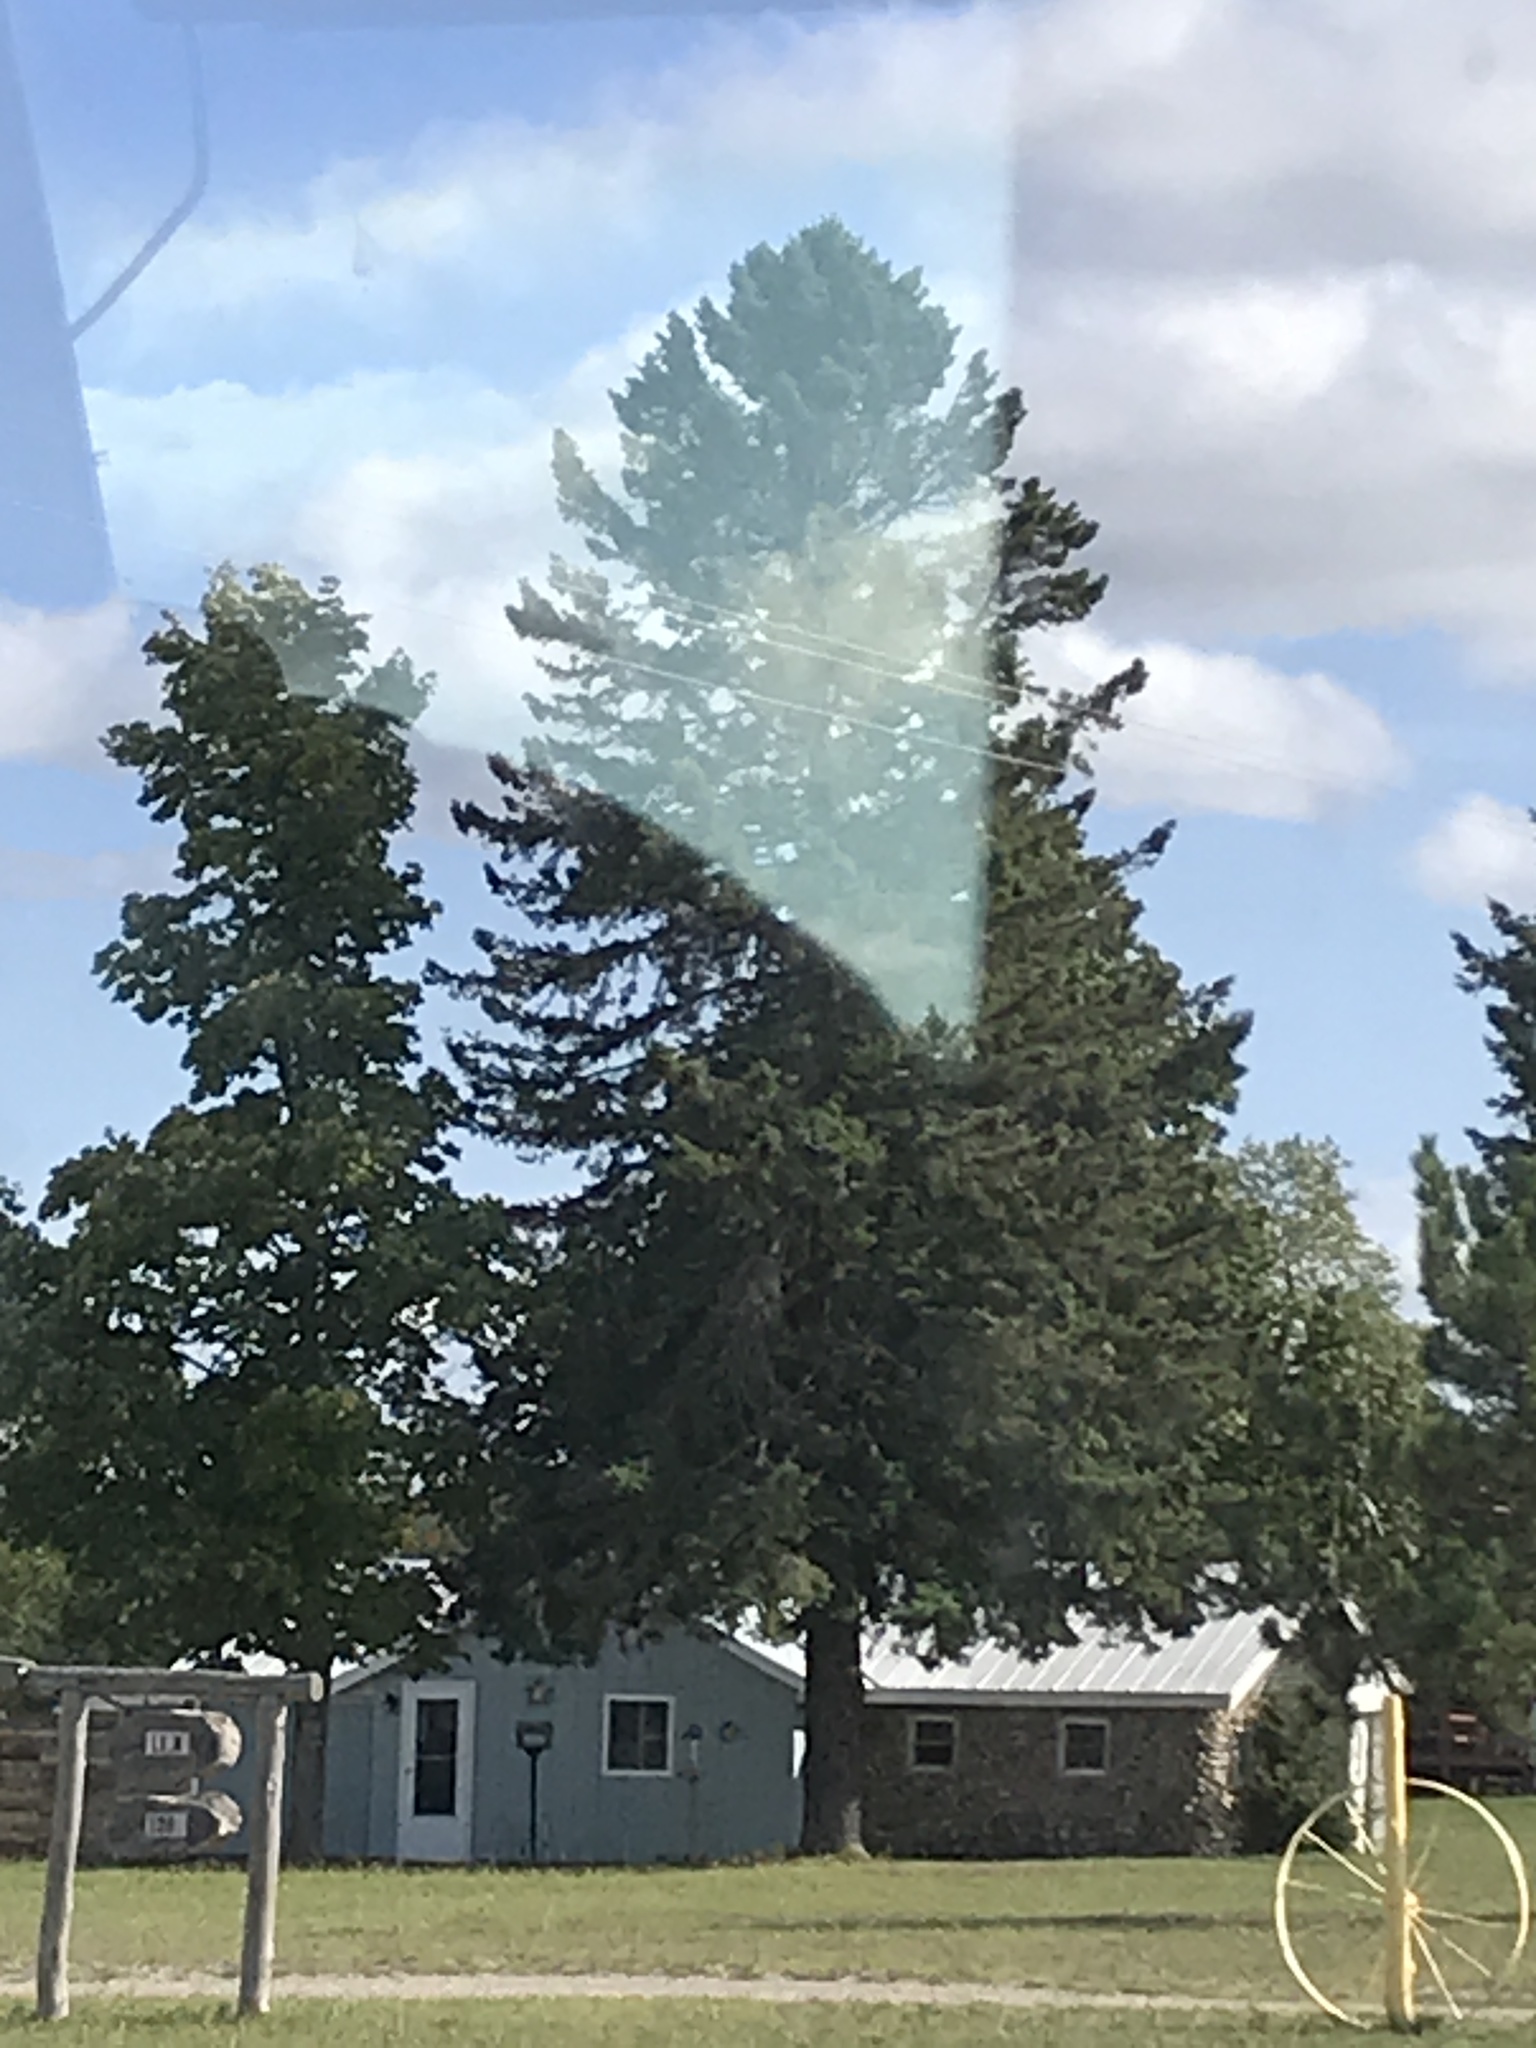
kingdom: Plantae
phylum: Tracheophyta
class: Pinopsida
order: Pinales
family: Pinaceae
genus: Pinus
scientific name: Pinus strobus
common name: Weymouth pine
